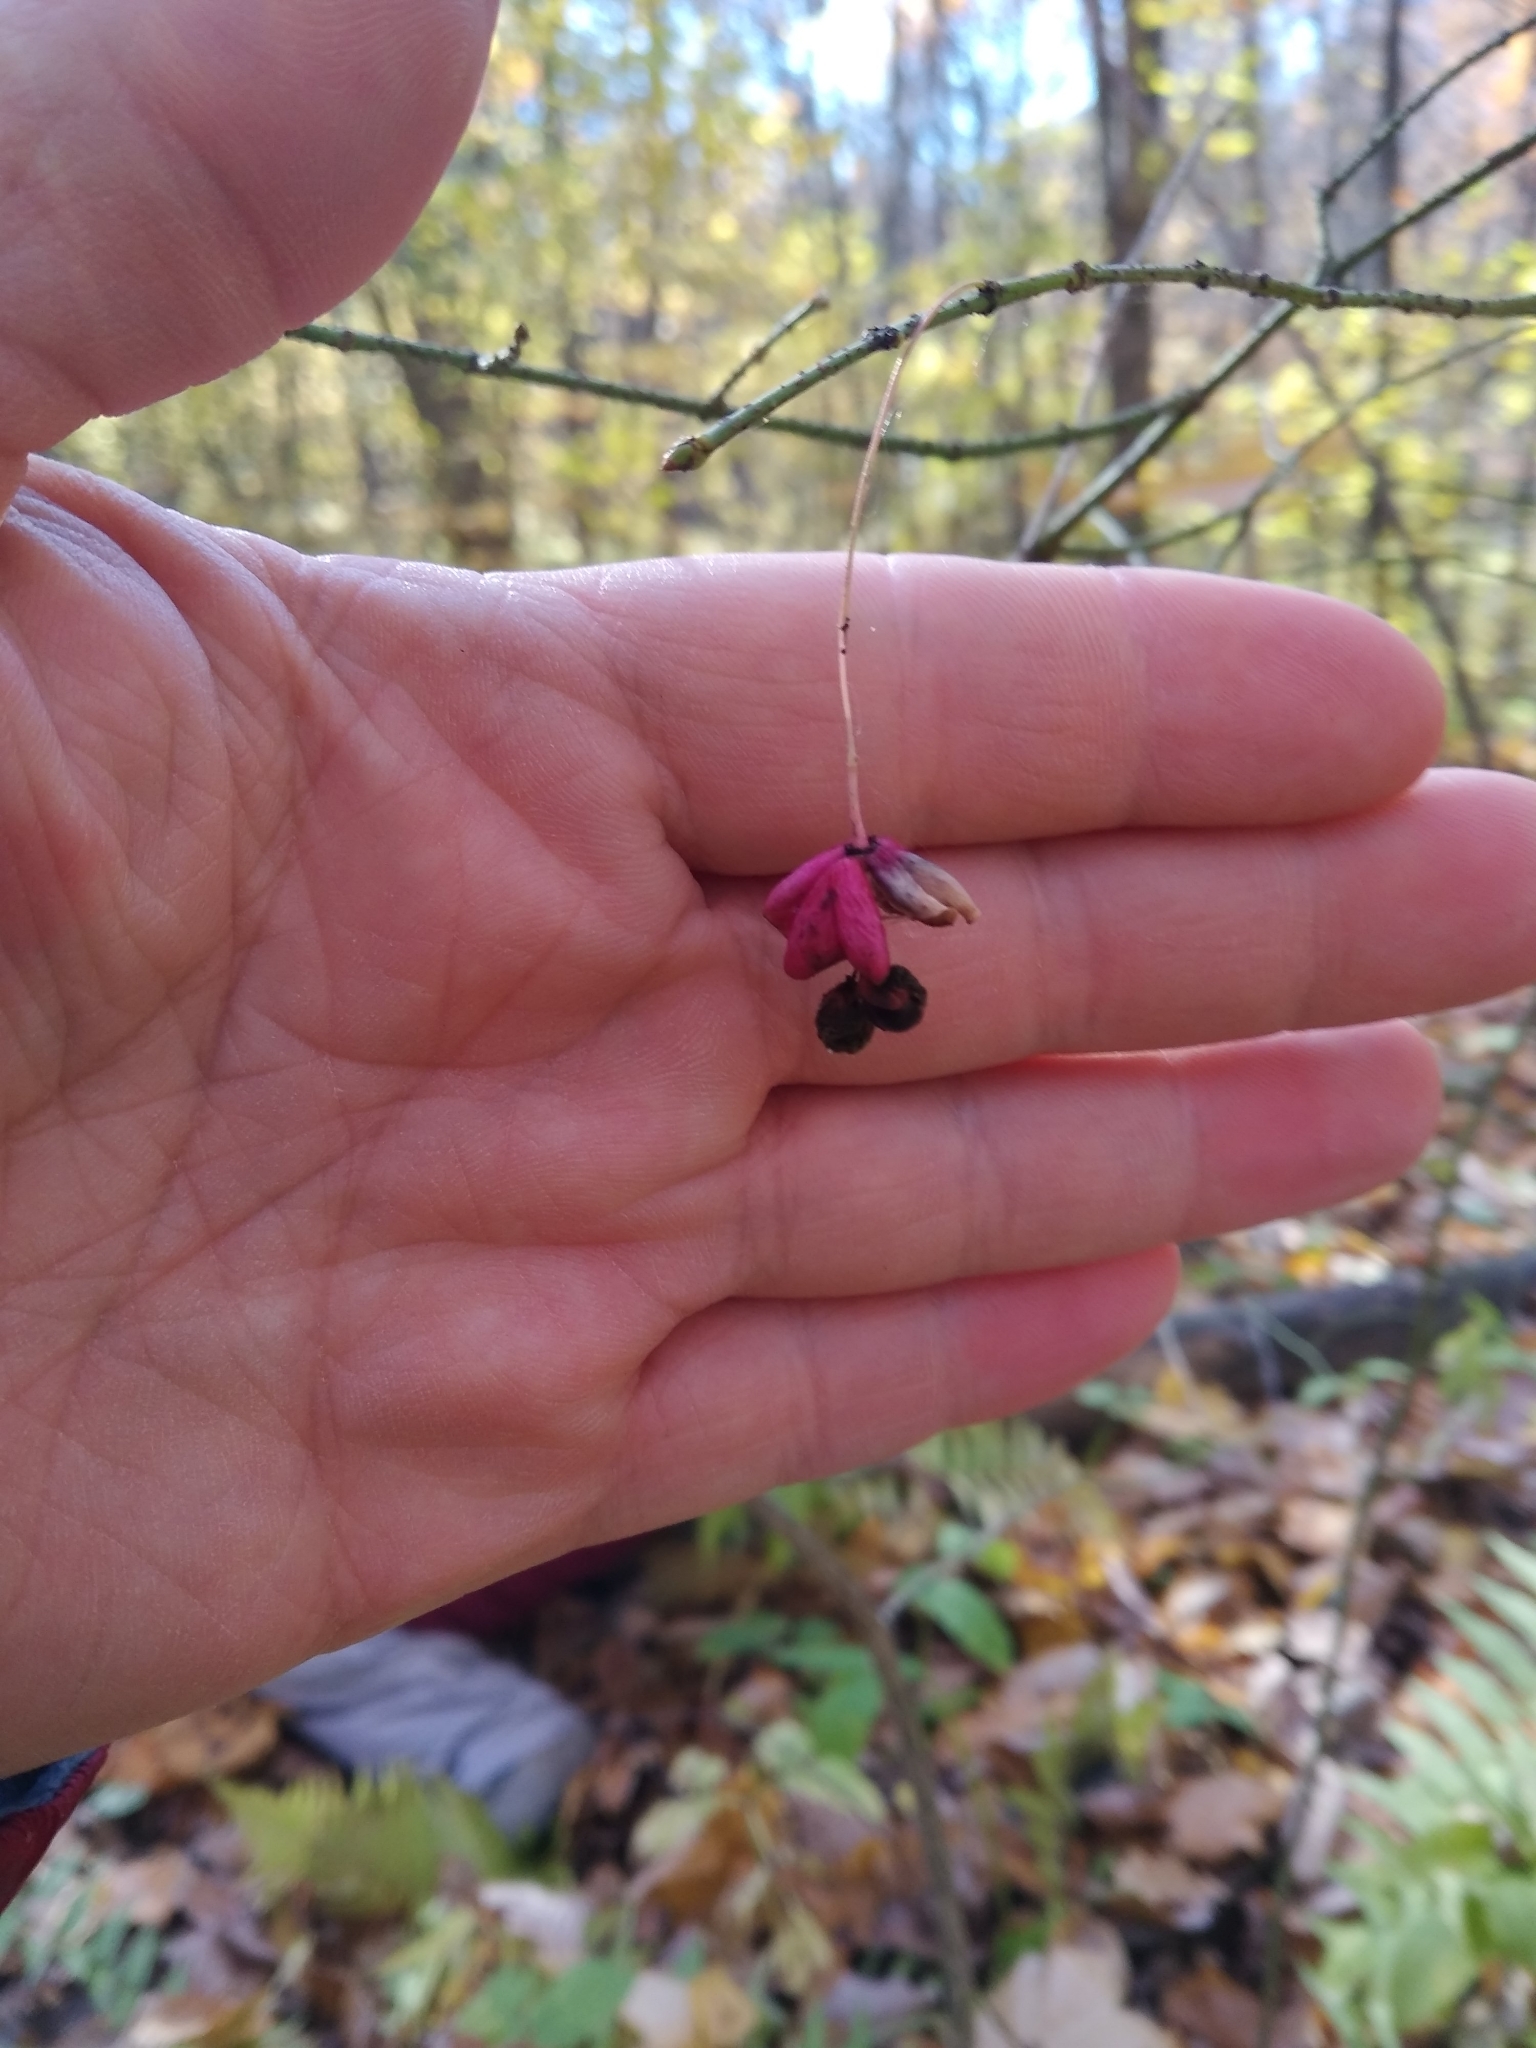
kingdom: Plantae
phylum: Tracheophyta
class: Magnoliopsida
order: Celastrales
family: Celastraceae
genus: Euonymus
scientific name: Euonymus verrucosus
